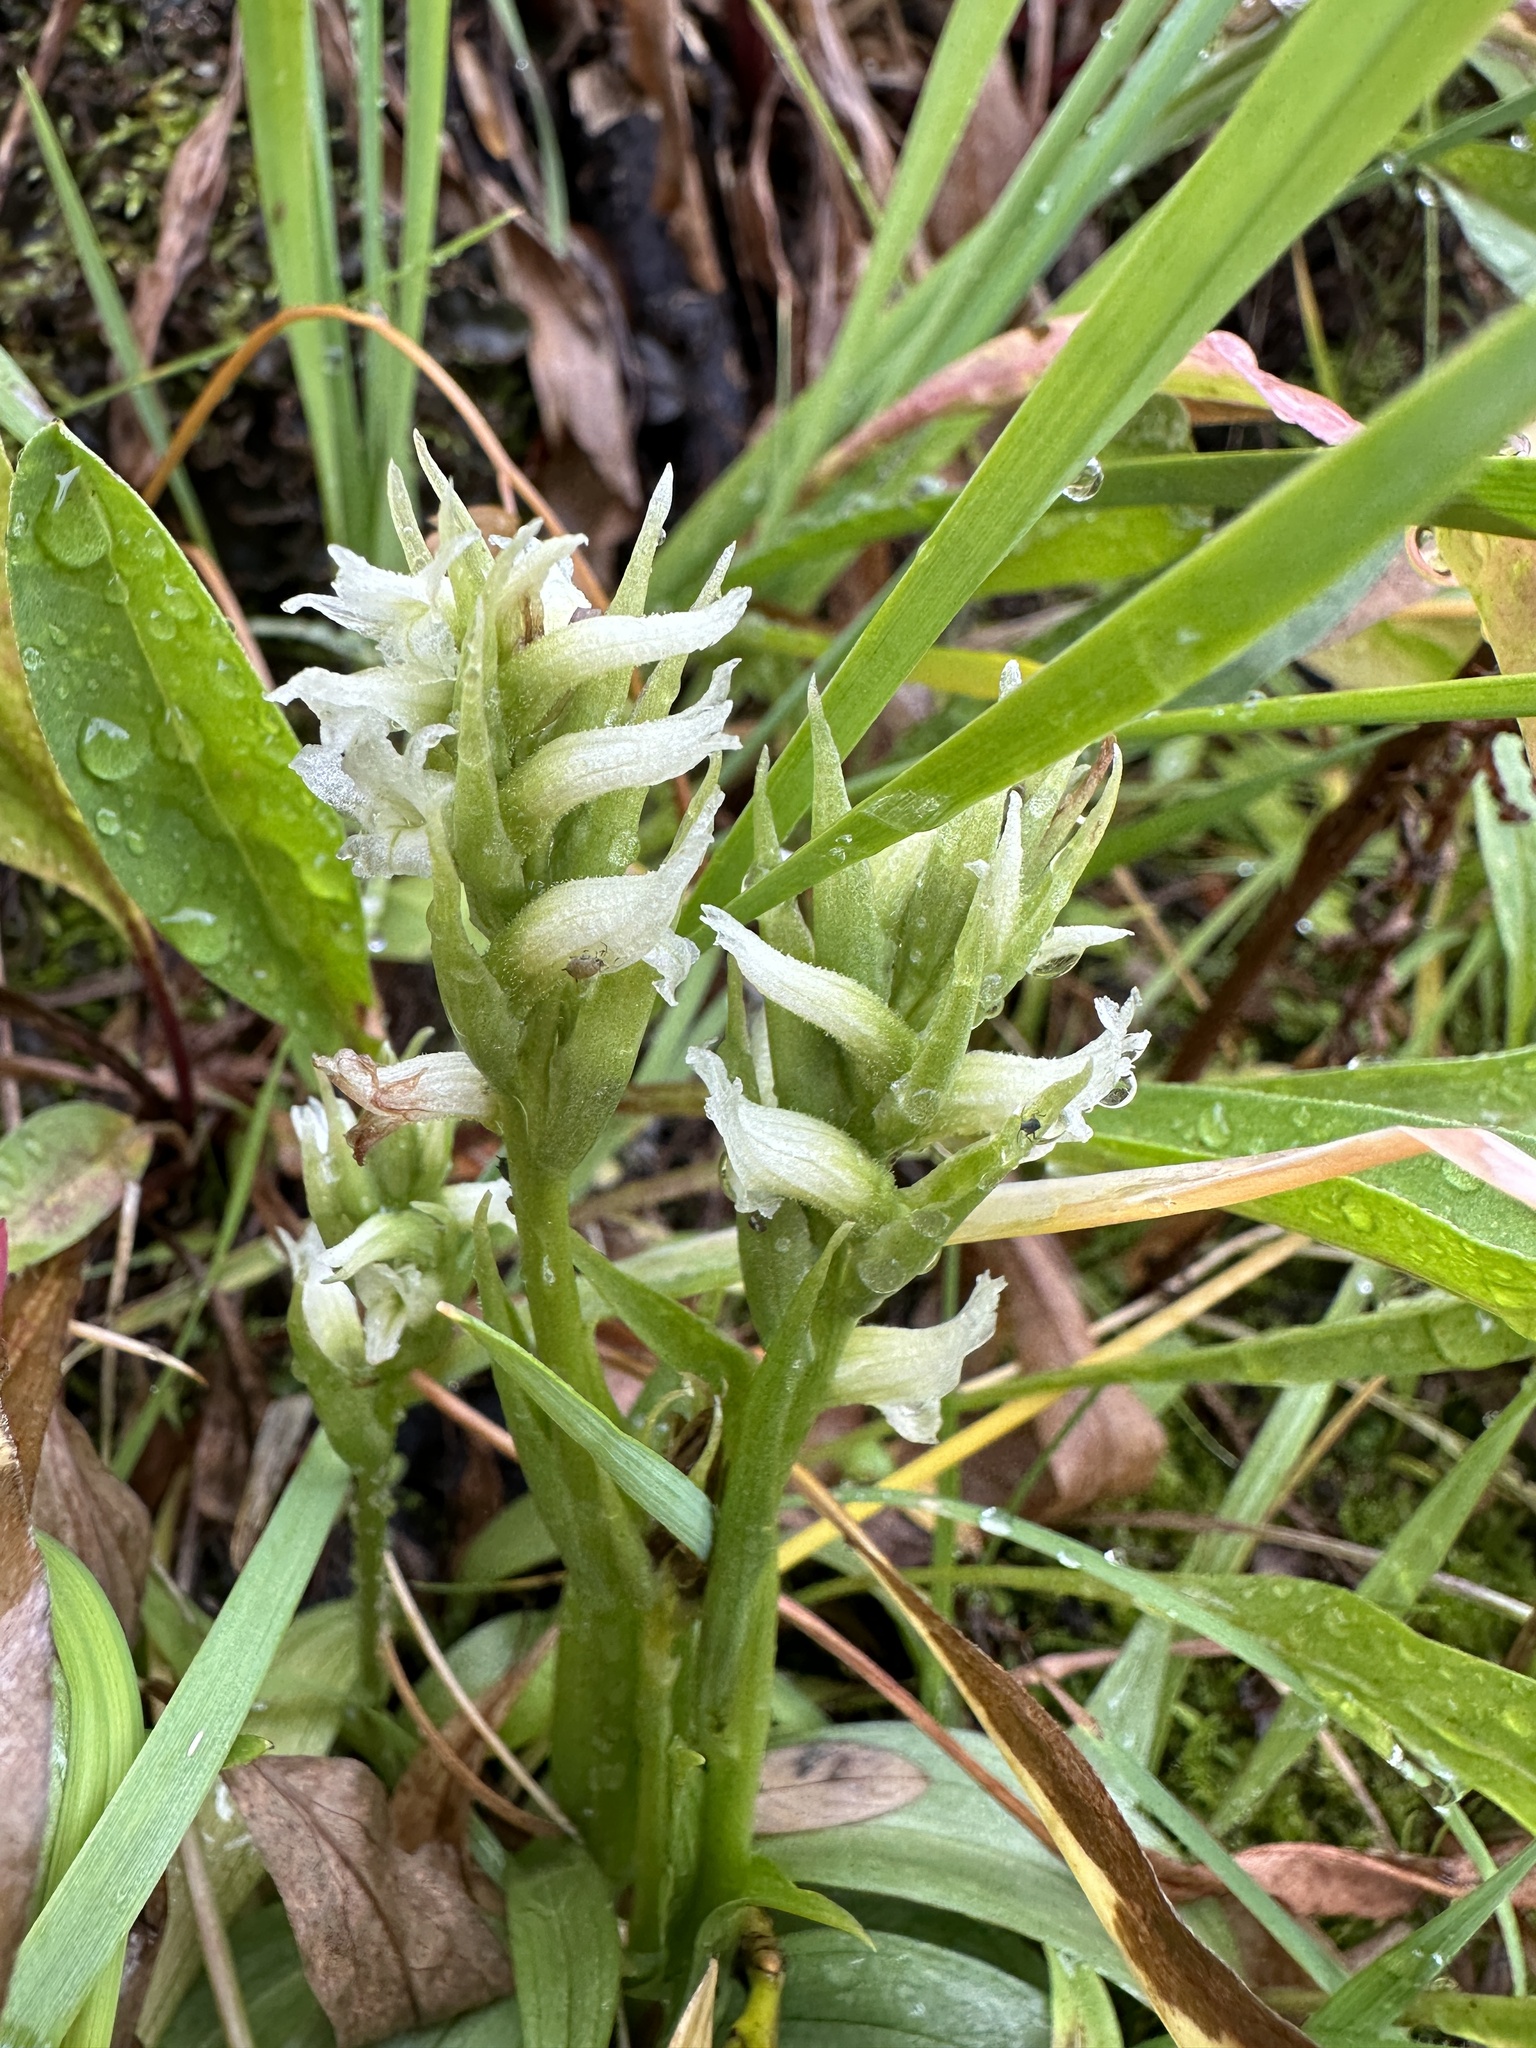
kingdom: Plantae
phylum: Tracheophyta
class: Liliopsida
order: Asparagales
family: Orchidaceae
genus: Spiranthes
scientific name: Spiranthes romanzoffiana
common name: Irish lady's-tresses
